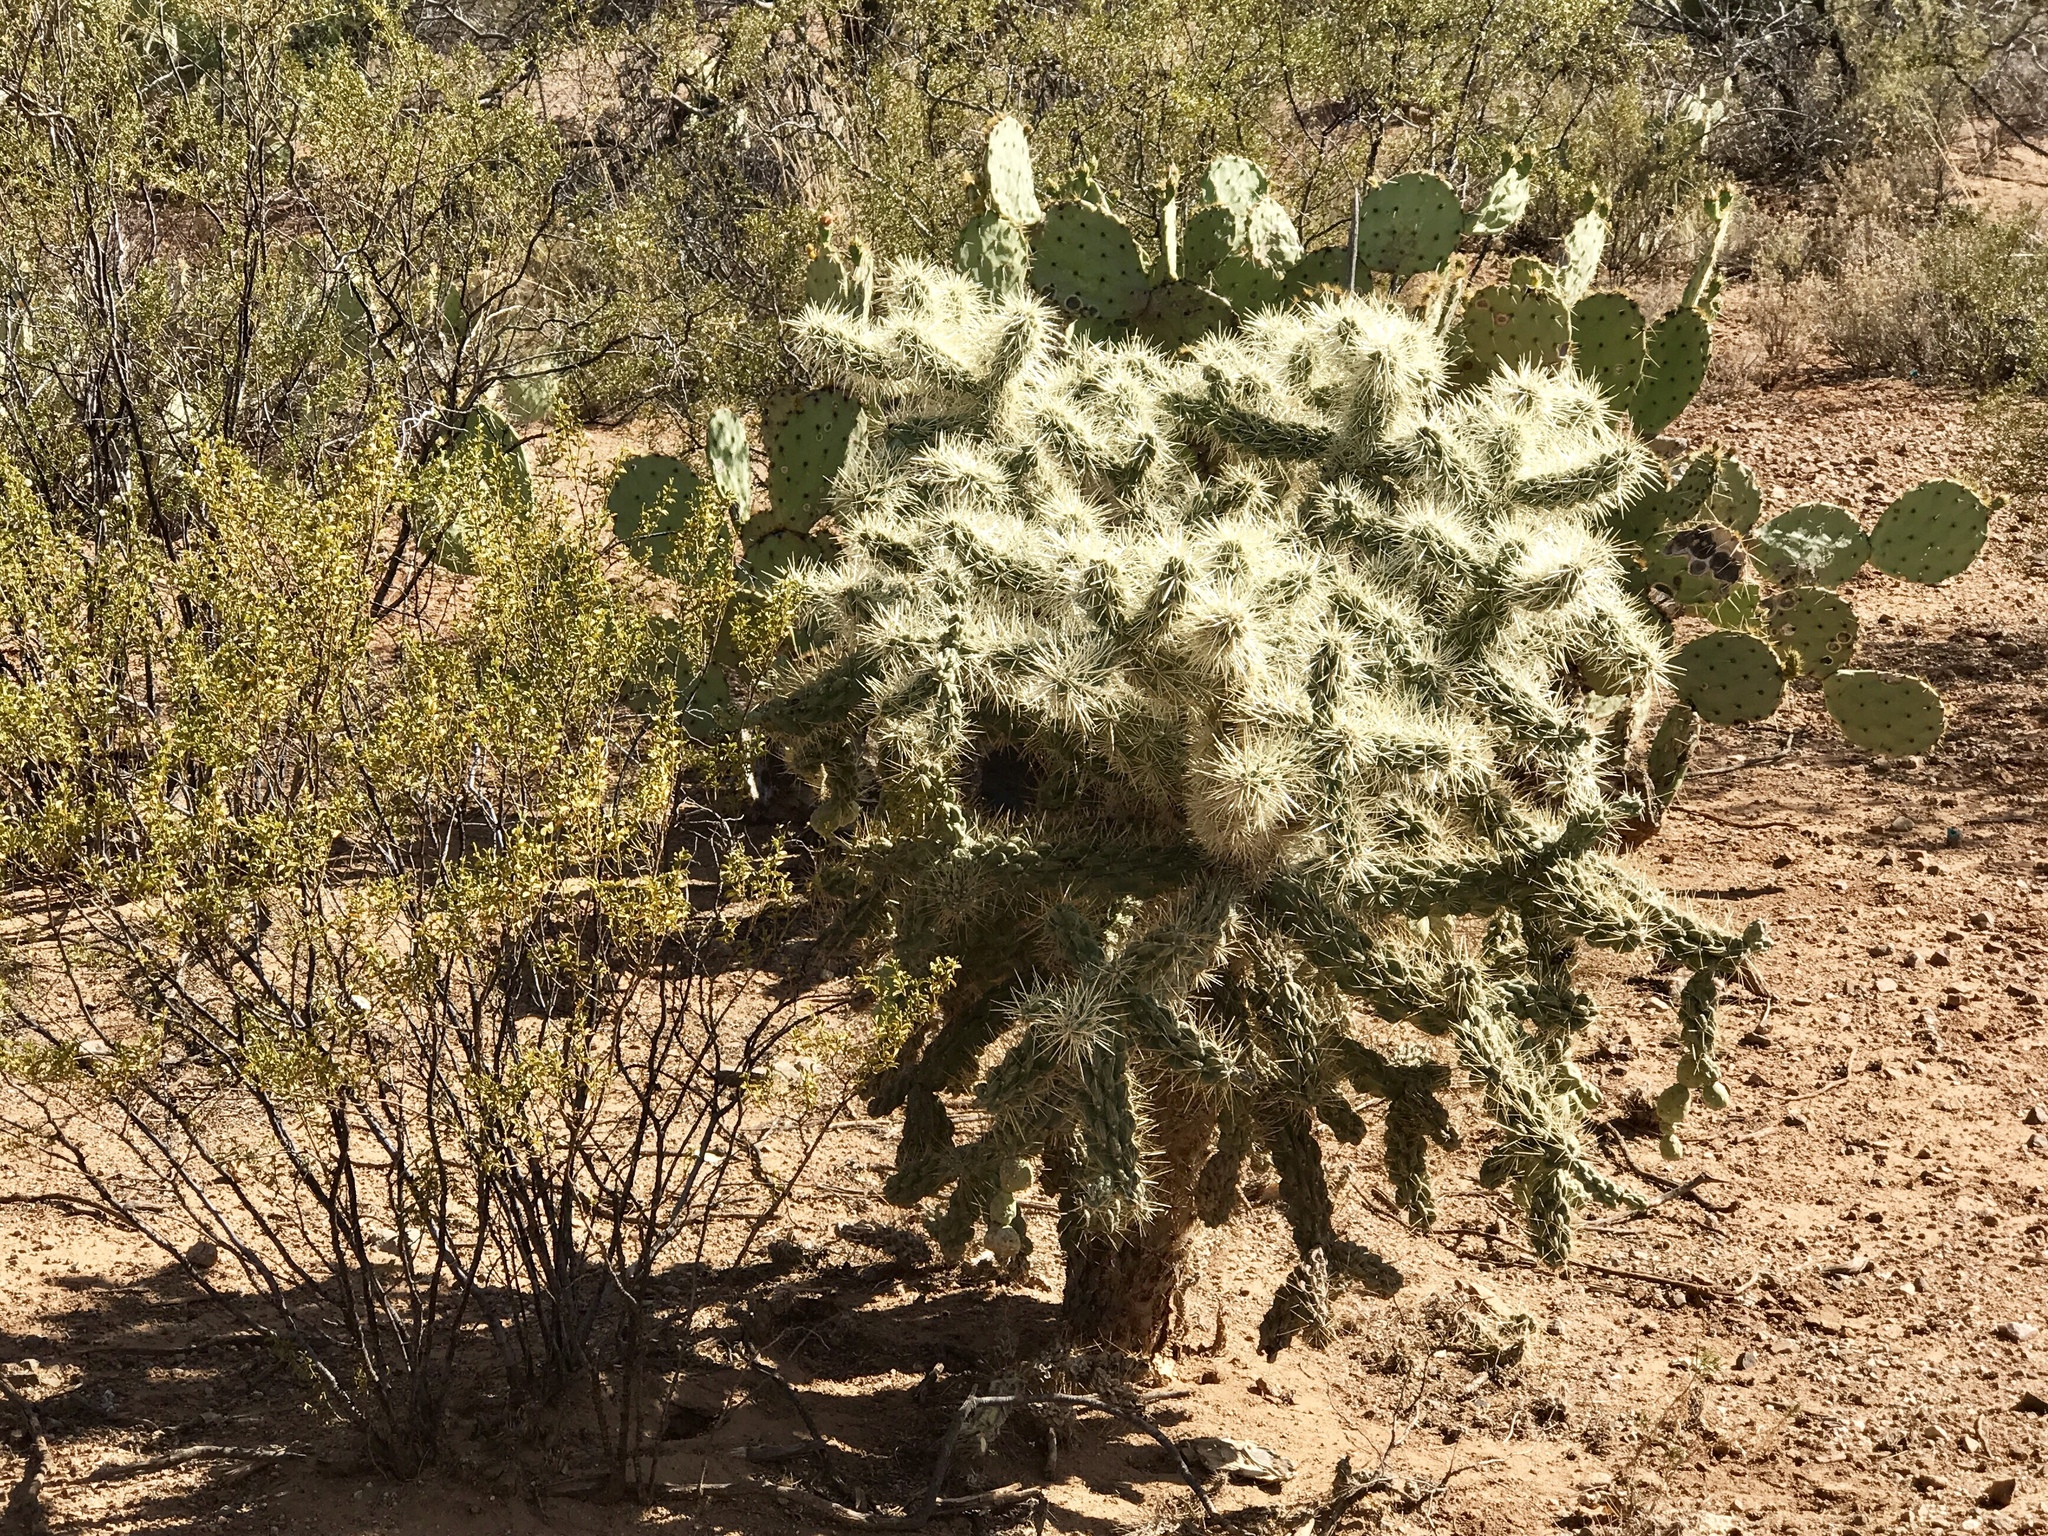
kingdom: Plantae
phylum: Tracheophyta
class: Magnoliopsida
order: Caryophyllales
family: Cactaceae
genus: Cylindropuntia
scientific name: Cylindropuntia fulgida
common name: Jumping cholla
